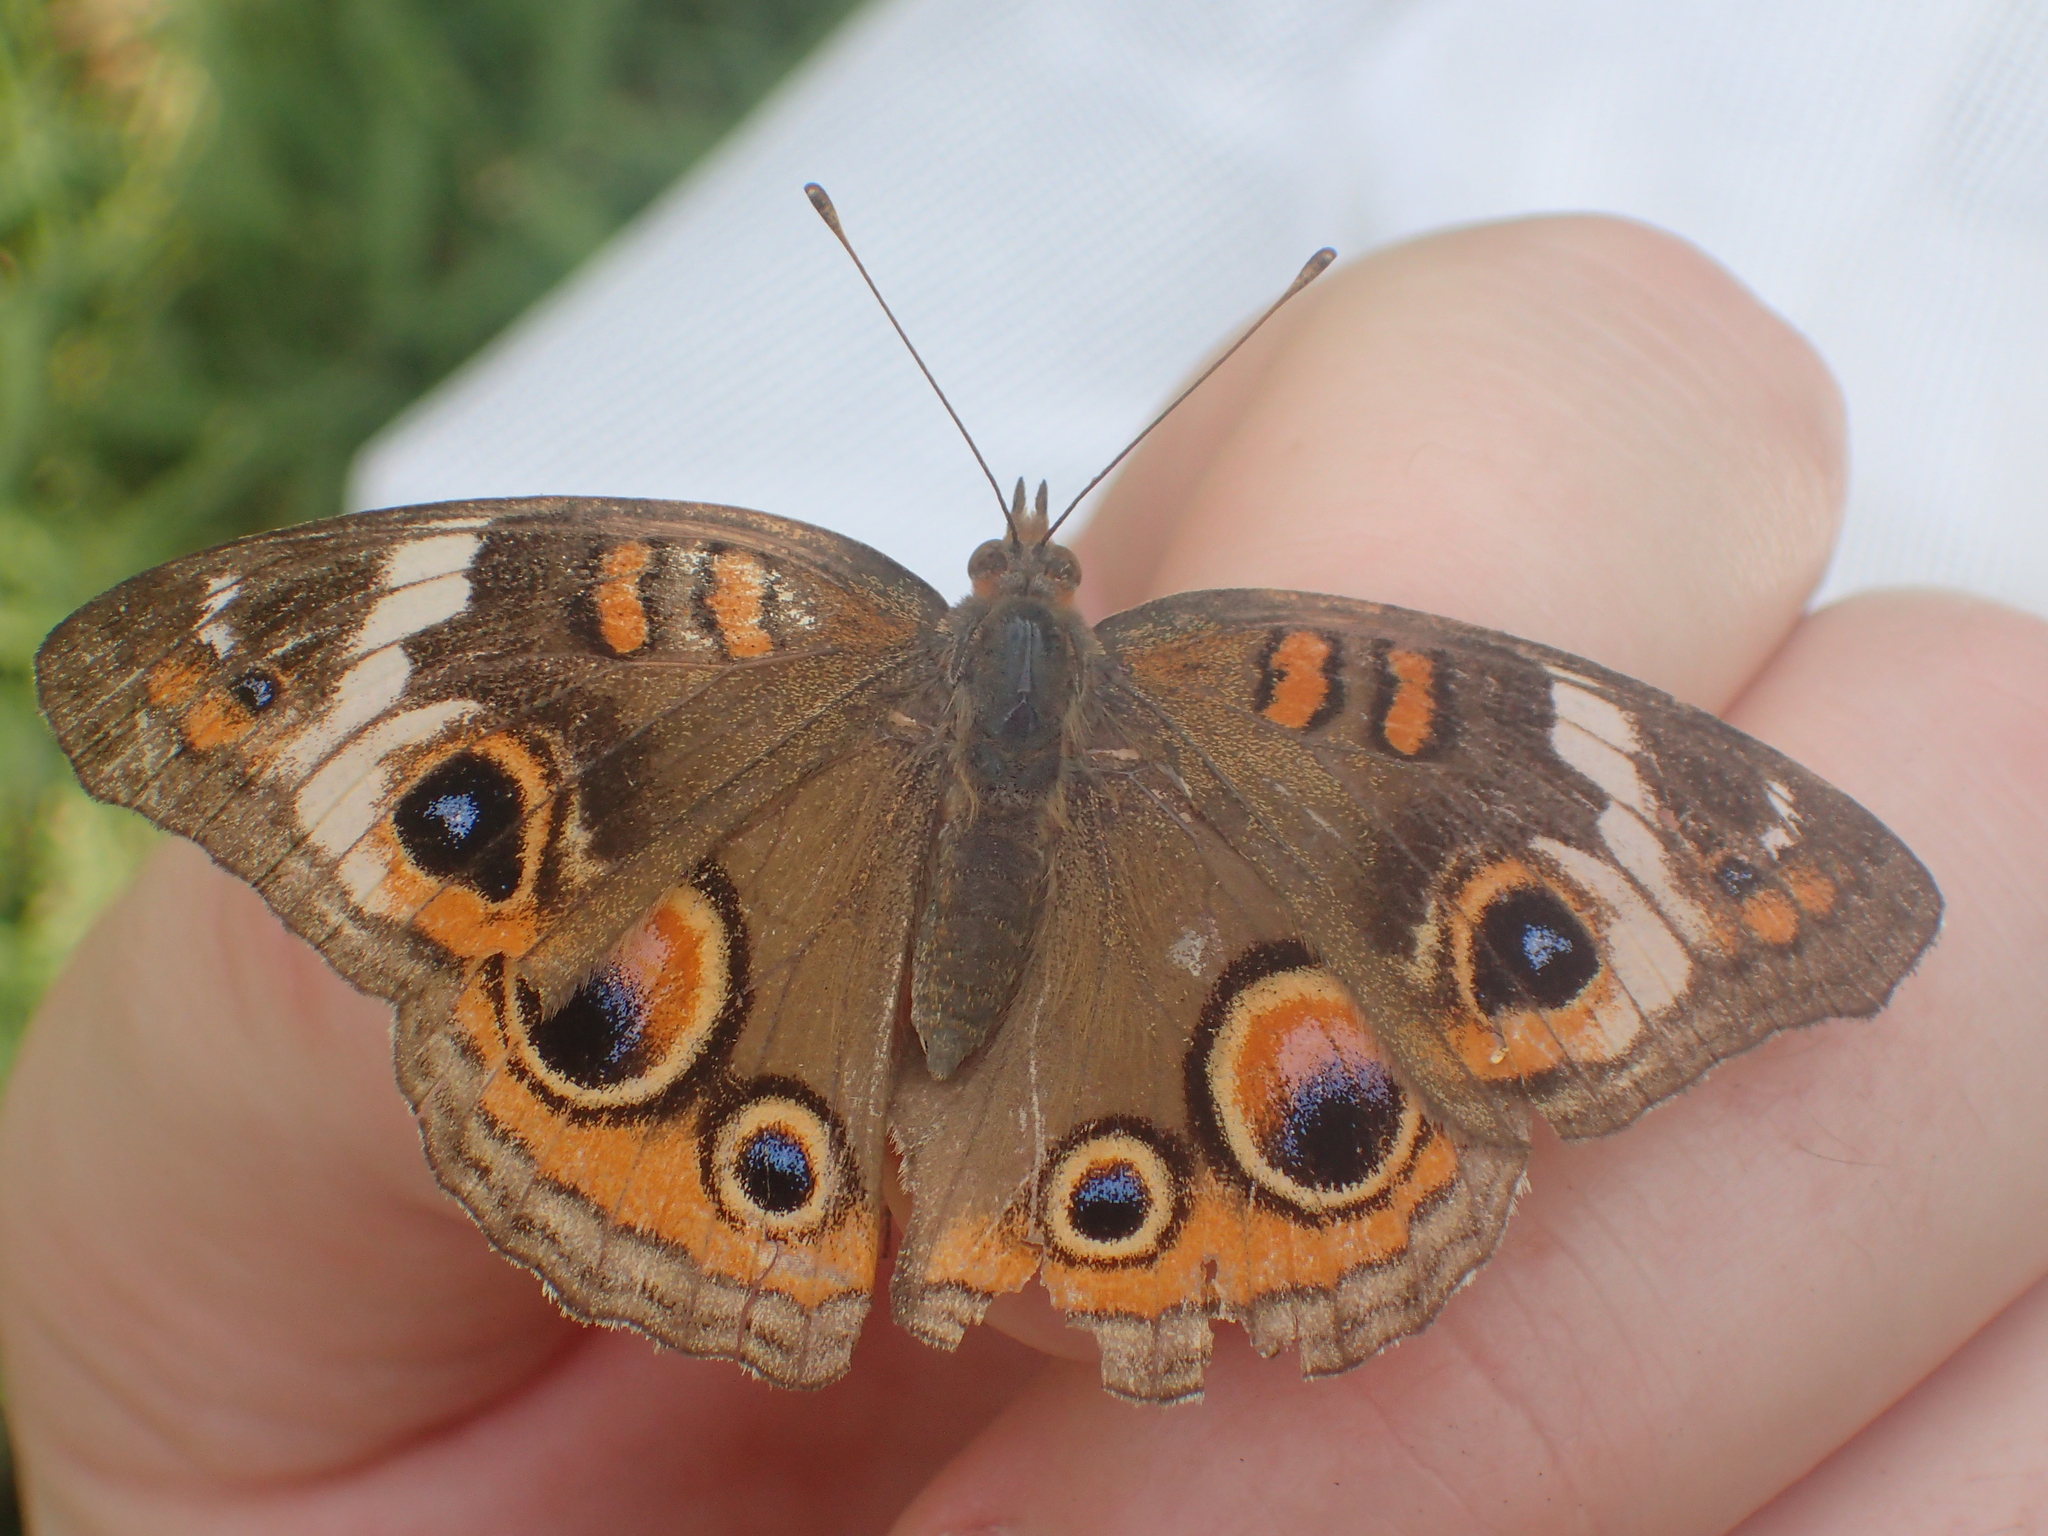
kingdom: Animalia
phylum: Arthropoda
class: Insecta
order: Lepidoptera
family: Nymphalidae
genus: Junonia
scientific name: Junonia coenia
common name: Common buckeye
